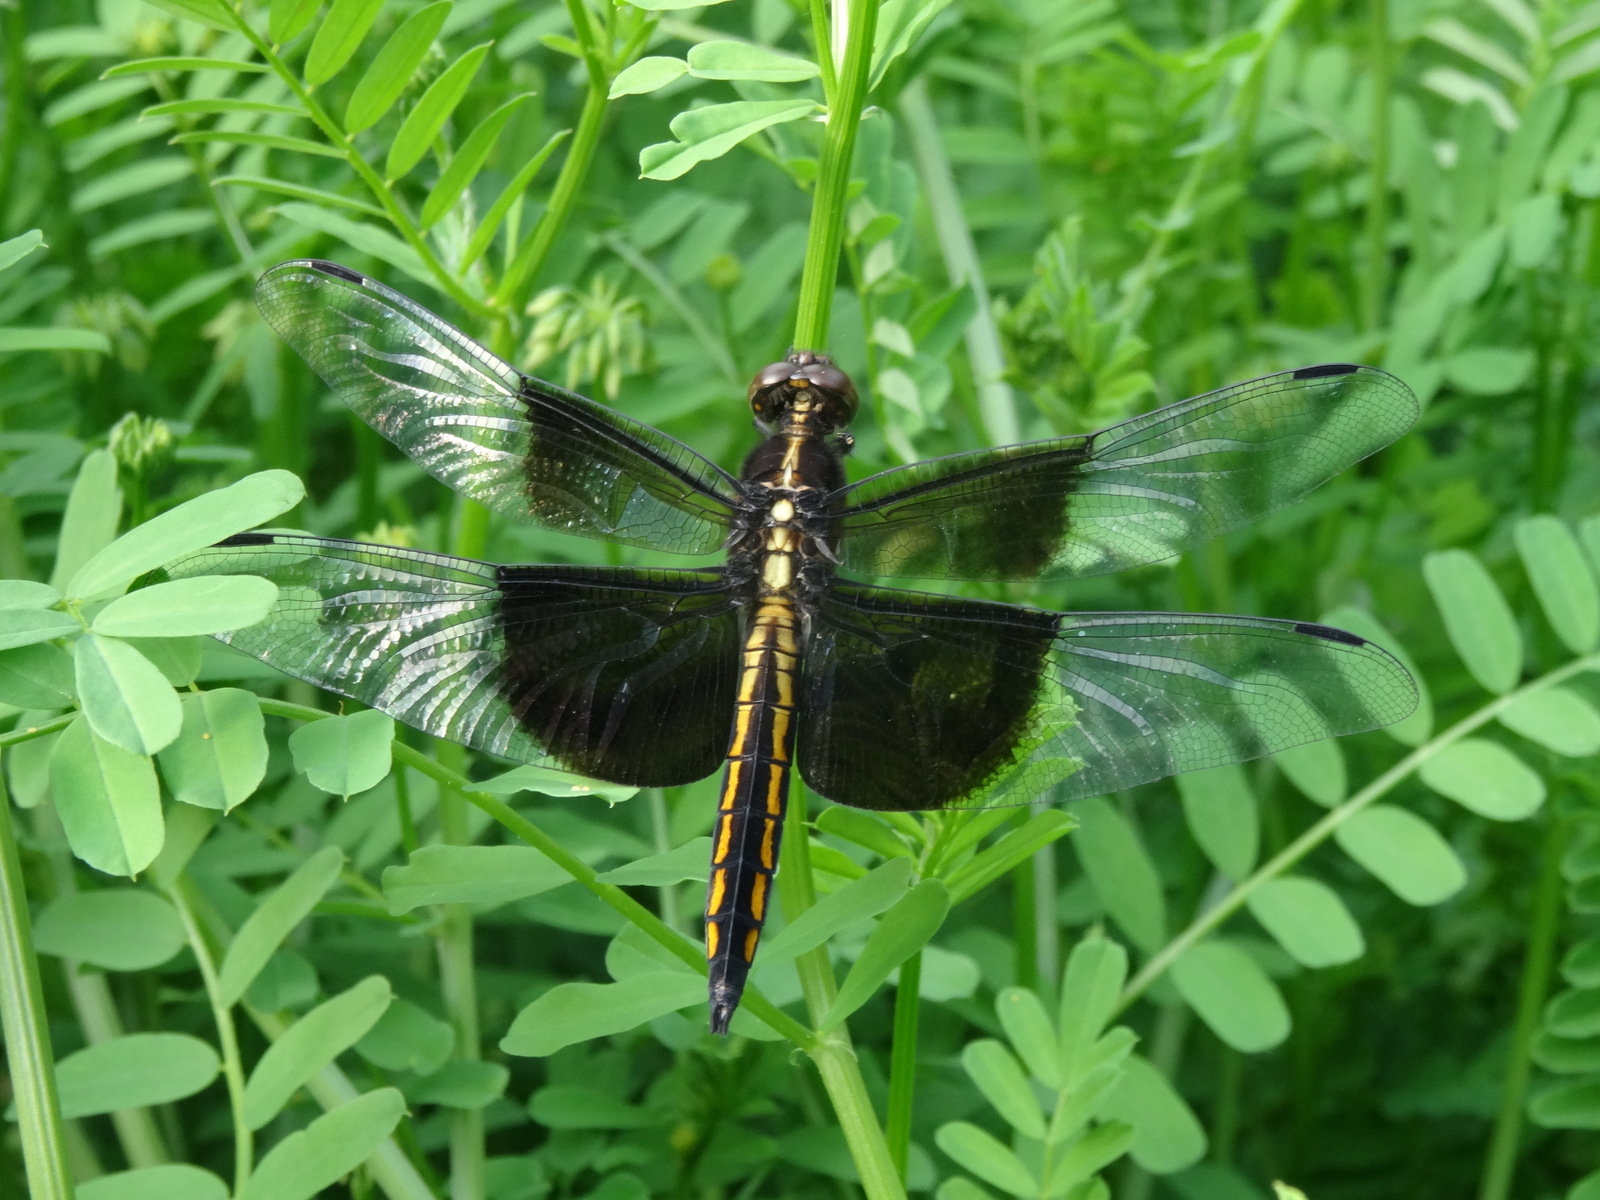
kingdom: Animalia
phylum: Arthropoda
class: Insecta
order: Odonata
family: Libellulidae
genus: Libellula
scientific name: Libellula luctuosa
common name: Widow skimmer
